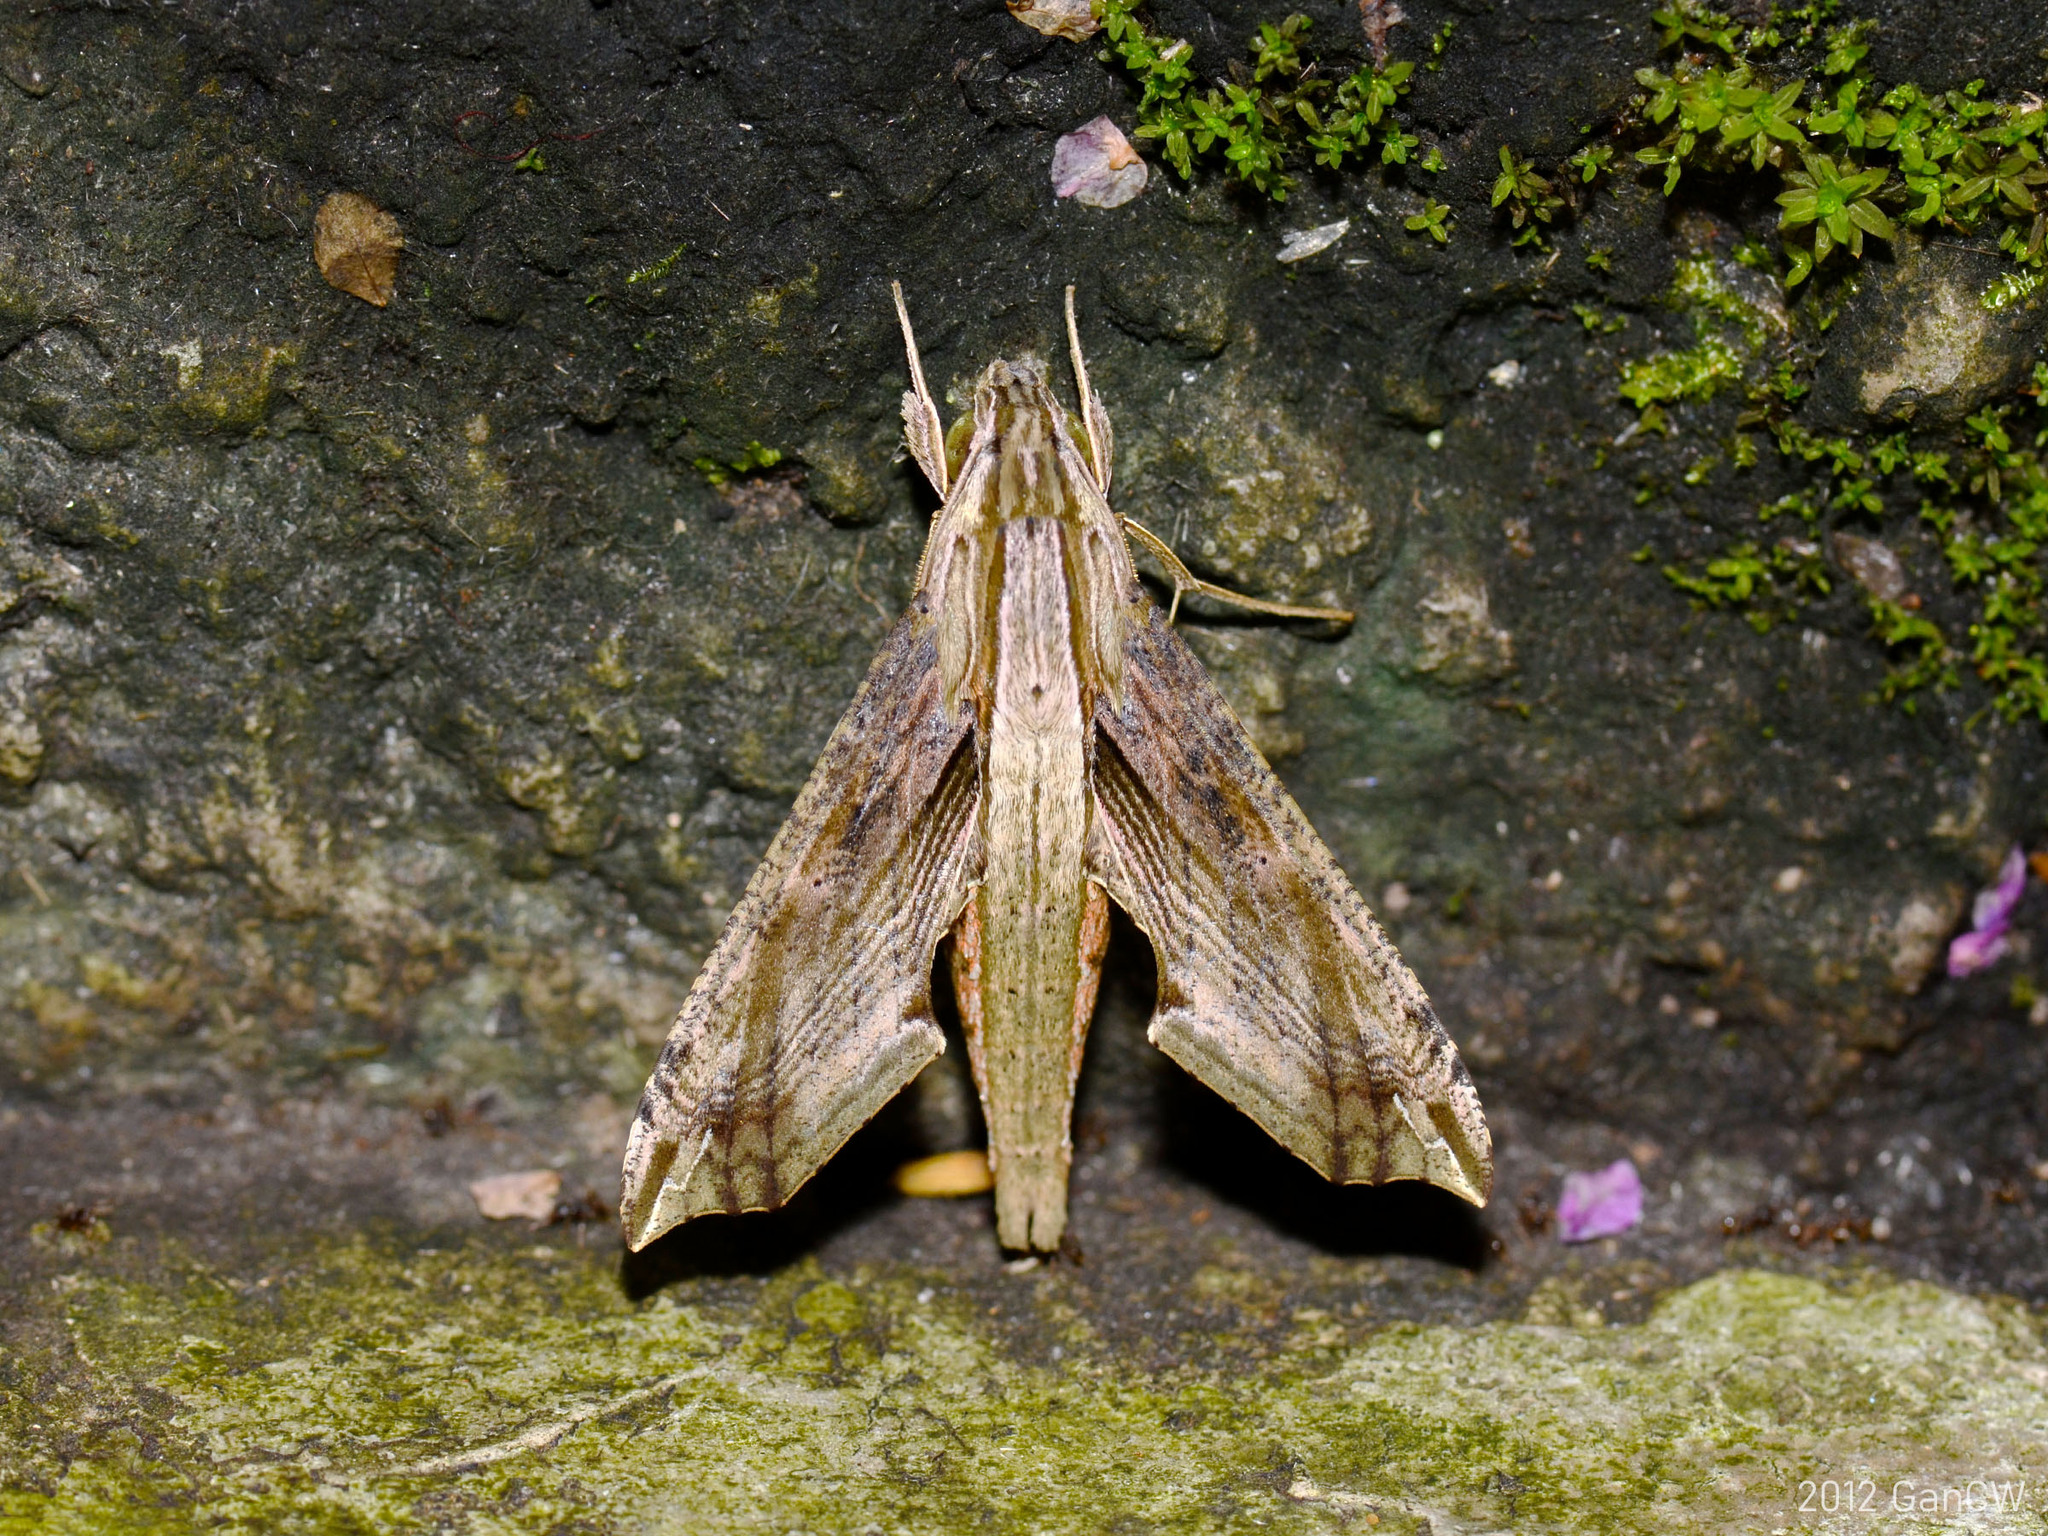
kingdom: Animalia
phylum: Arthropoda
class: Insecta
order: Lepidoptera
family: Sphingidae
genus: Eupanacra
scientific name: Eupanacra regularis
